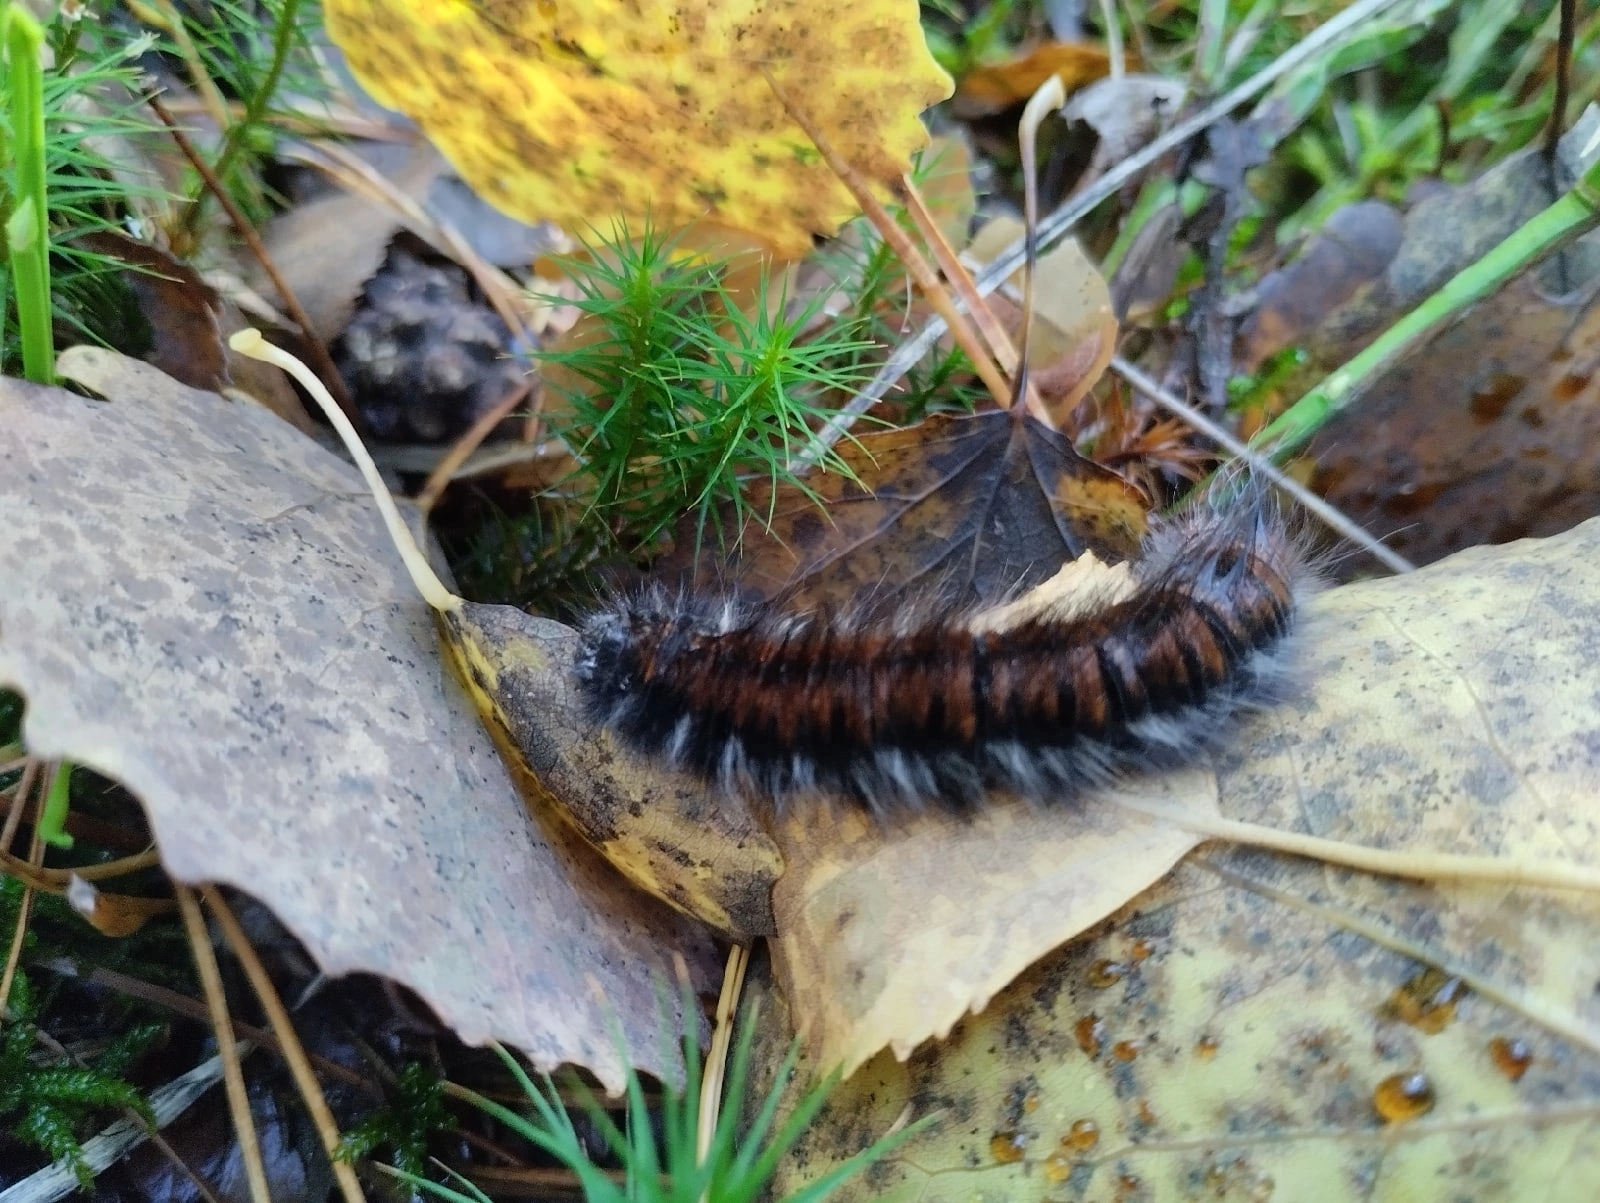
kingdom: Animalia
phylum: Arthropoda
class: Insecta
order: Lepidoptera
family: Lasiocampidae
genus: Macrothylacia
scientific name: Macrothylacia rubi
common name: Fox moth
